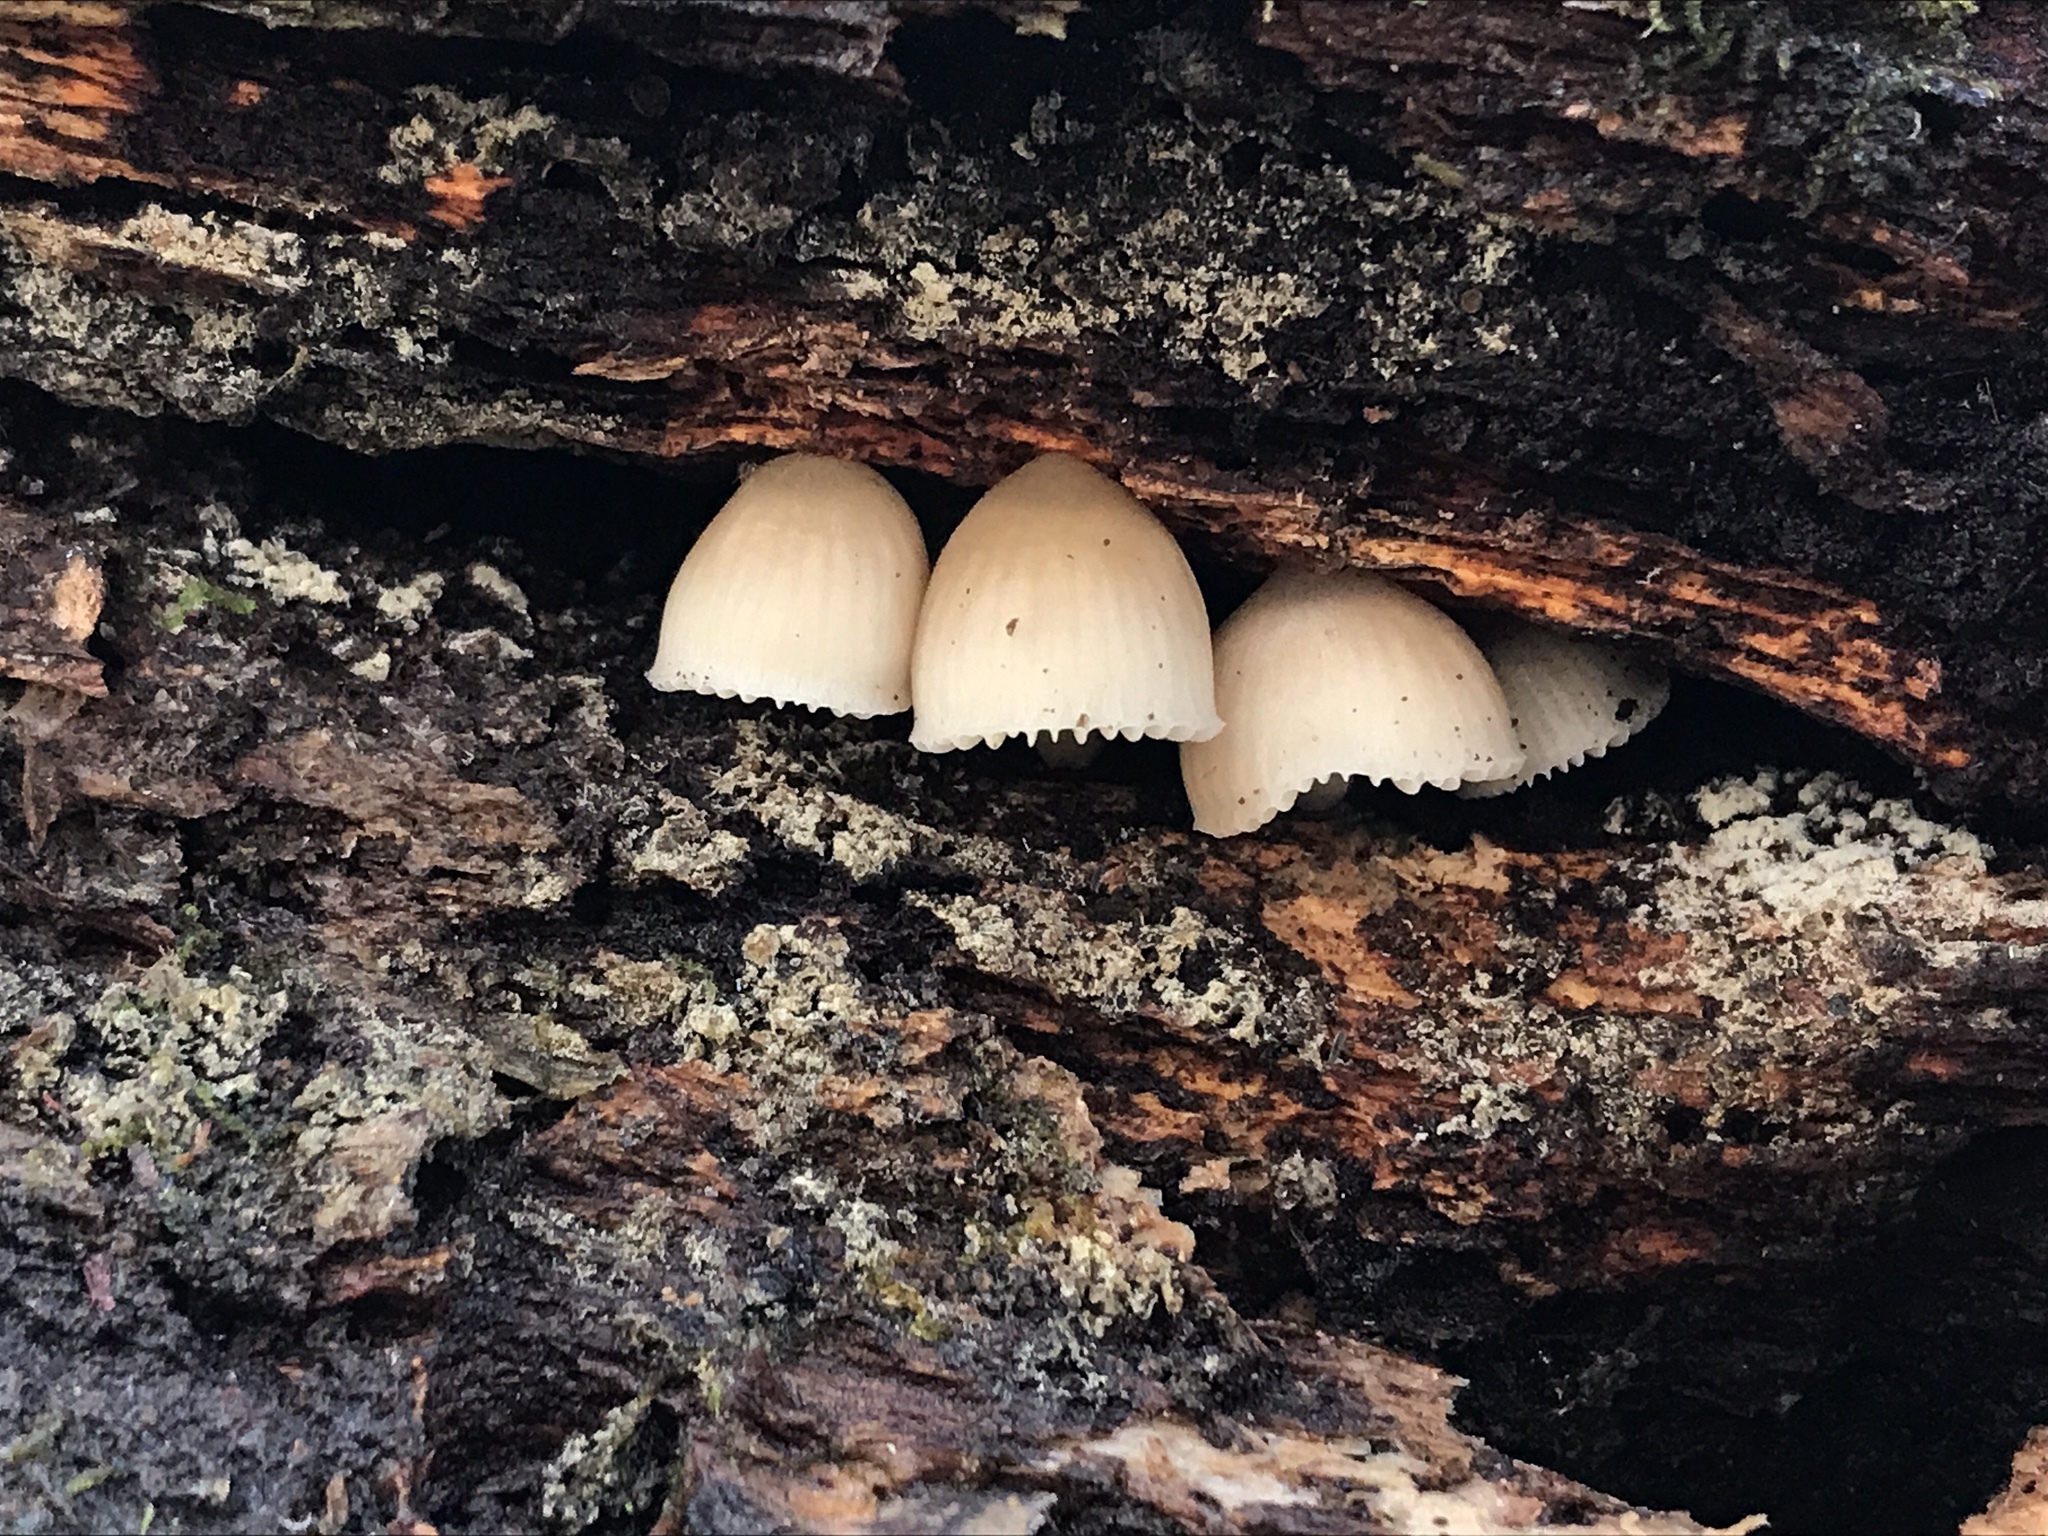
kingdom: Fungi
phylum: Basidiomycota
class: Agaricomycetes
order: Agaricales
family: Mycenaceae
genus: Mycena
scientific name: Mycena galericulata
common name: Bonnet mycena
